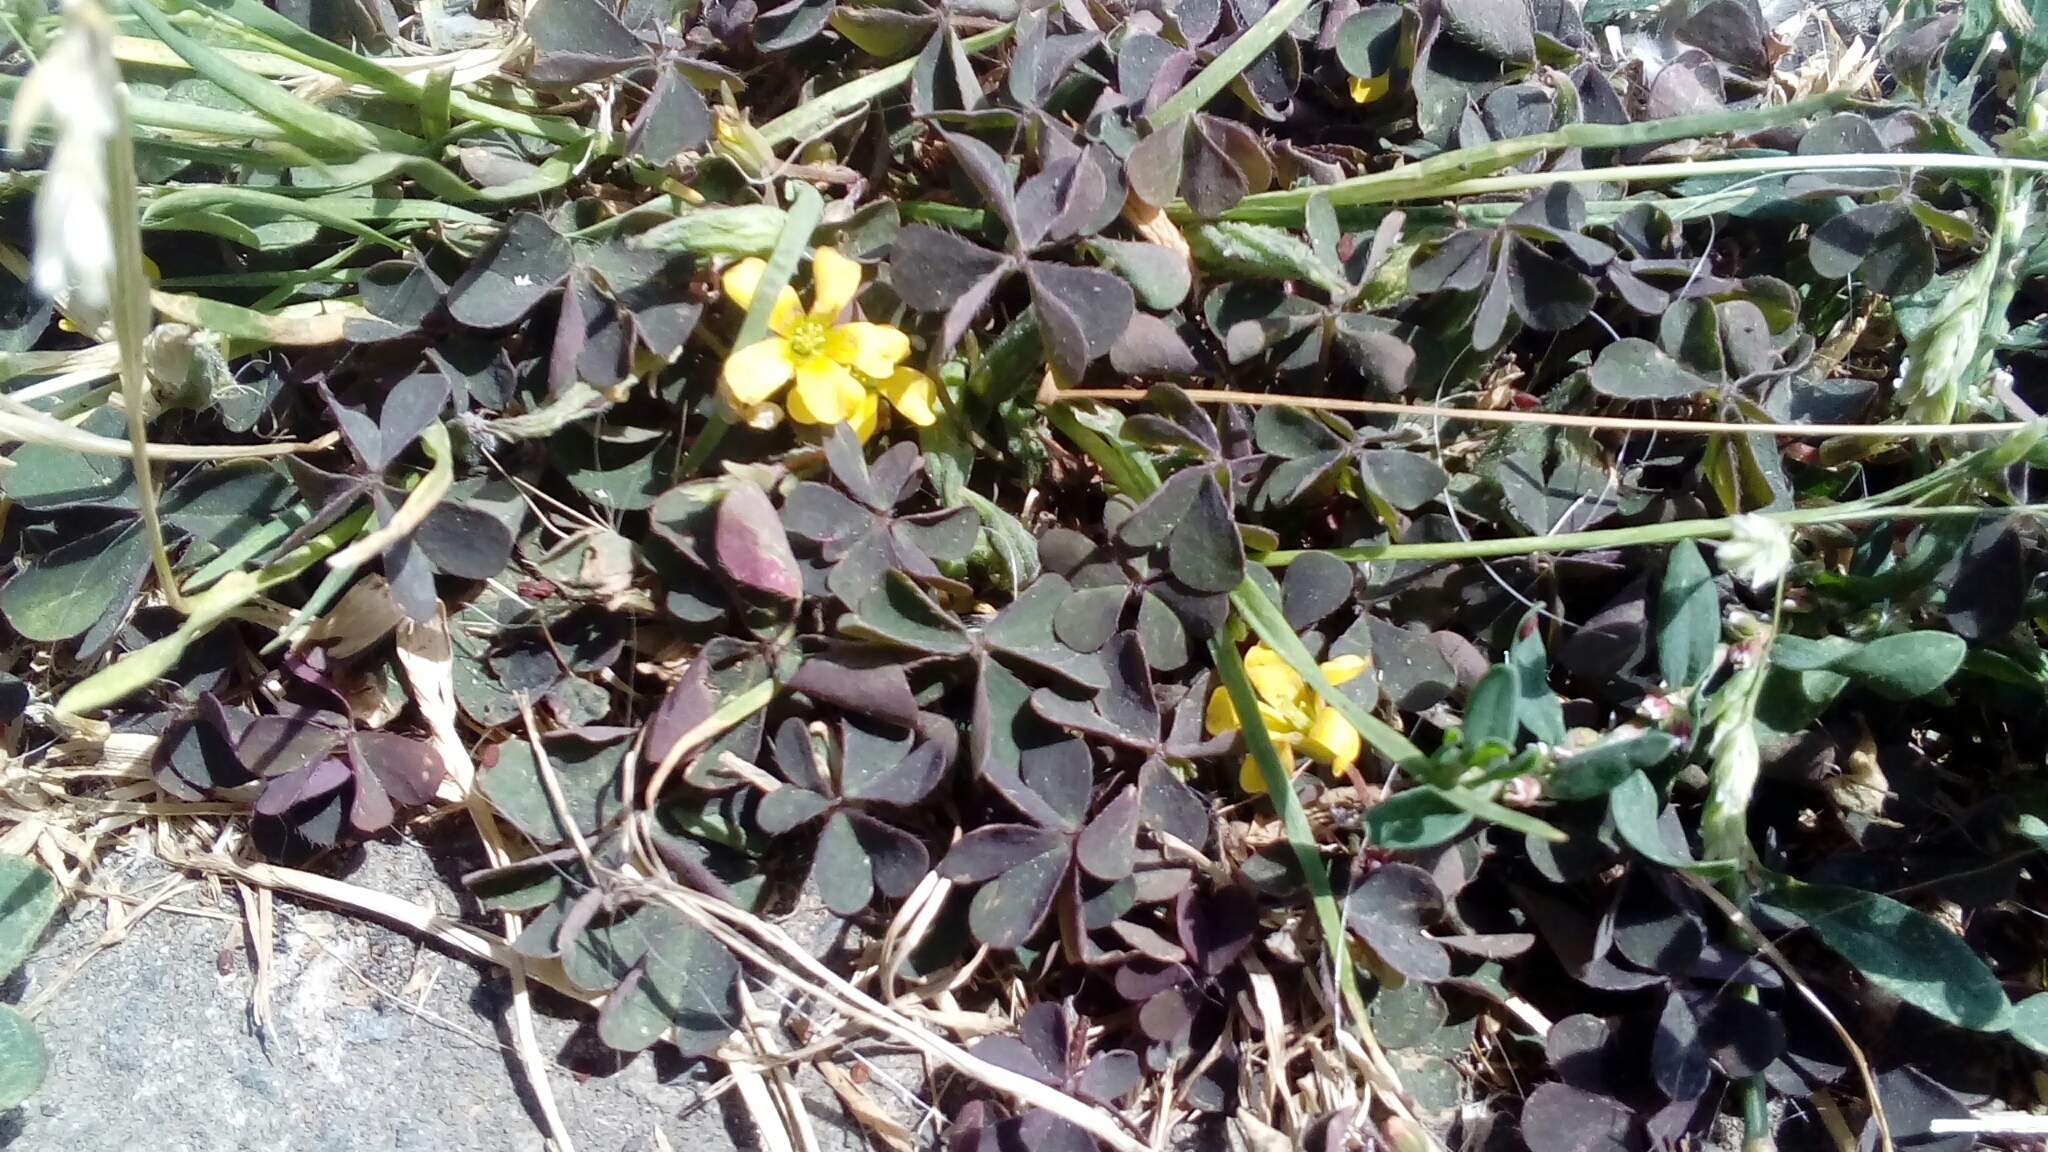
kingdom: Plantae
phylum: Tracheophyta
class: Magnoliopsida
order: Oxalidales
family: Oxalidaceae
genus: Oxalis
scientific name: Oxalis corniculata
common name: Procumbent yellow-sorrel
